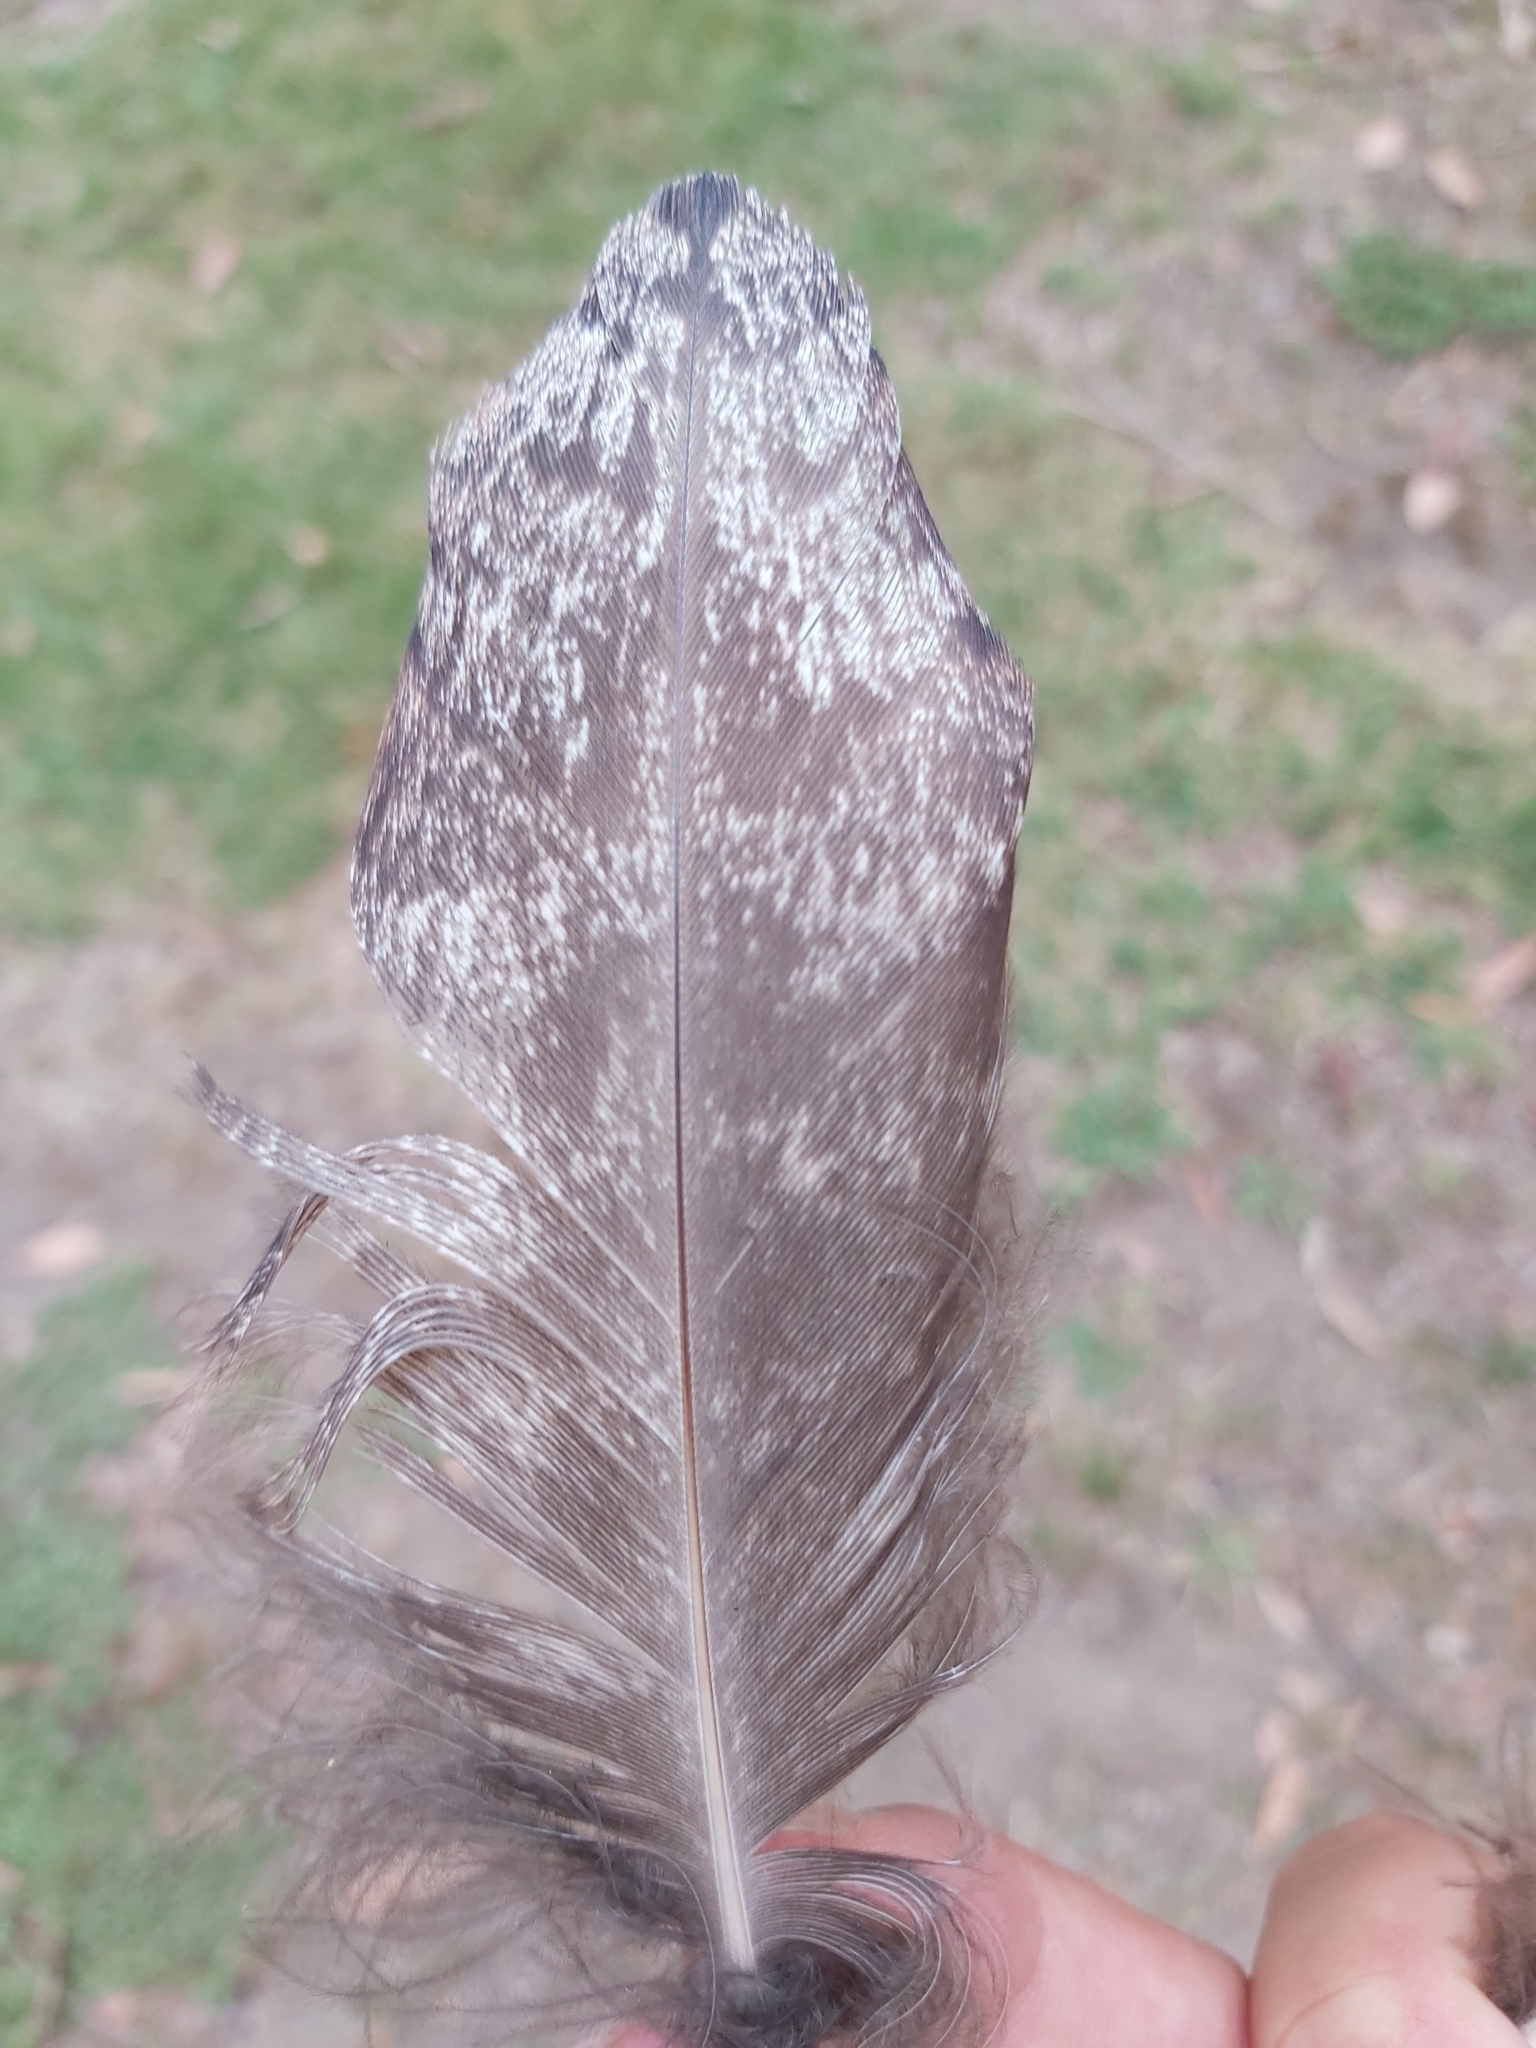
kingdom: Animalia
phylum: Chordata
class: Aves
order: Caprimulgiformes
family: Podargidae
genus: Podargus
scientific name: Podargus strigoides
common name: Tawny frogmouth
